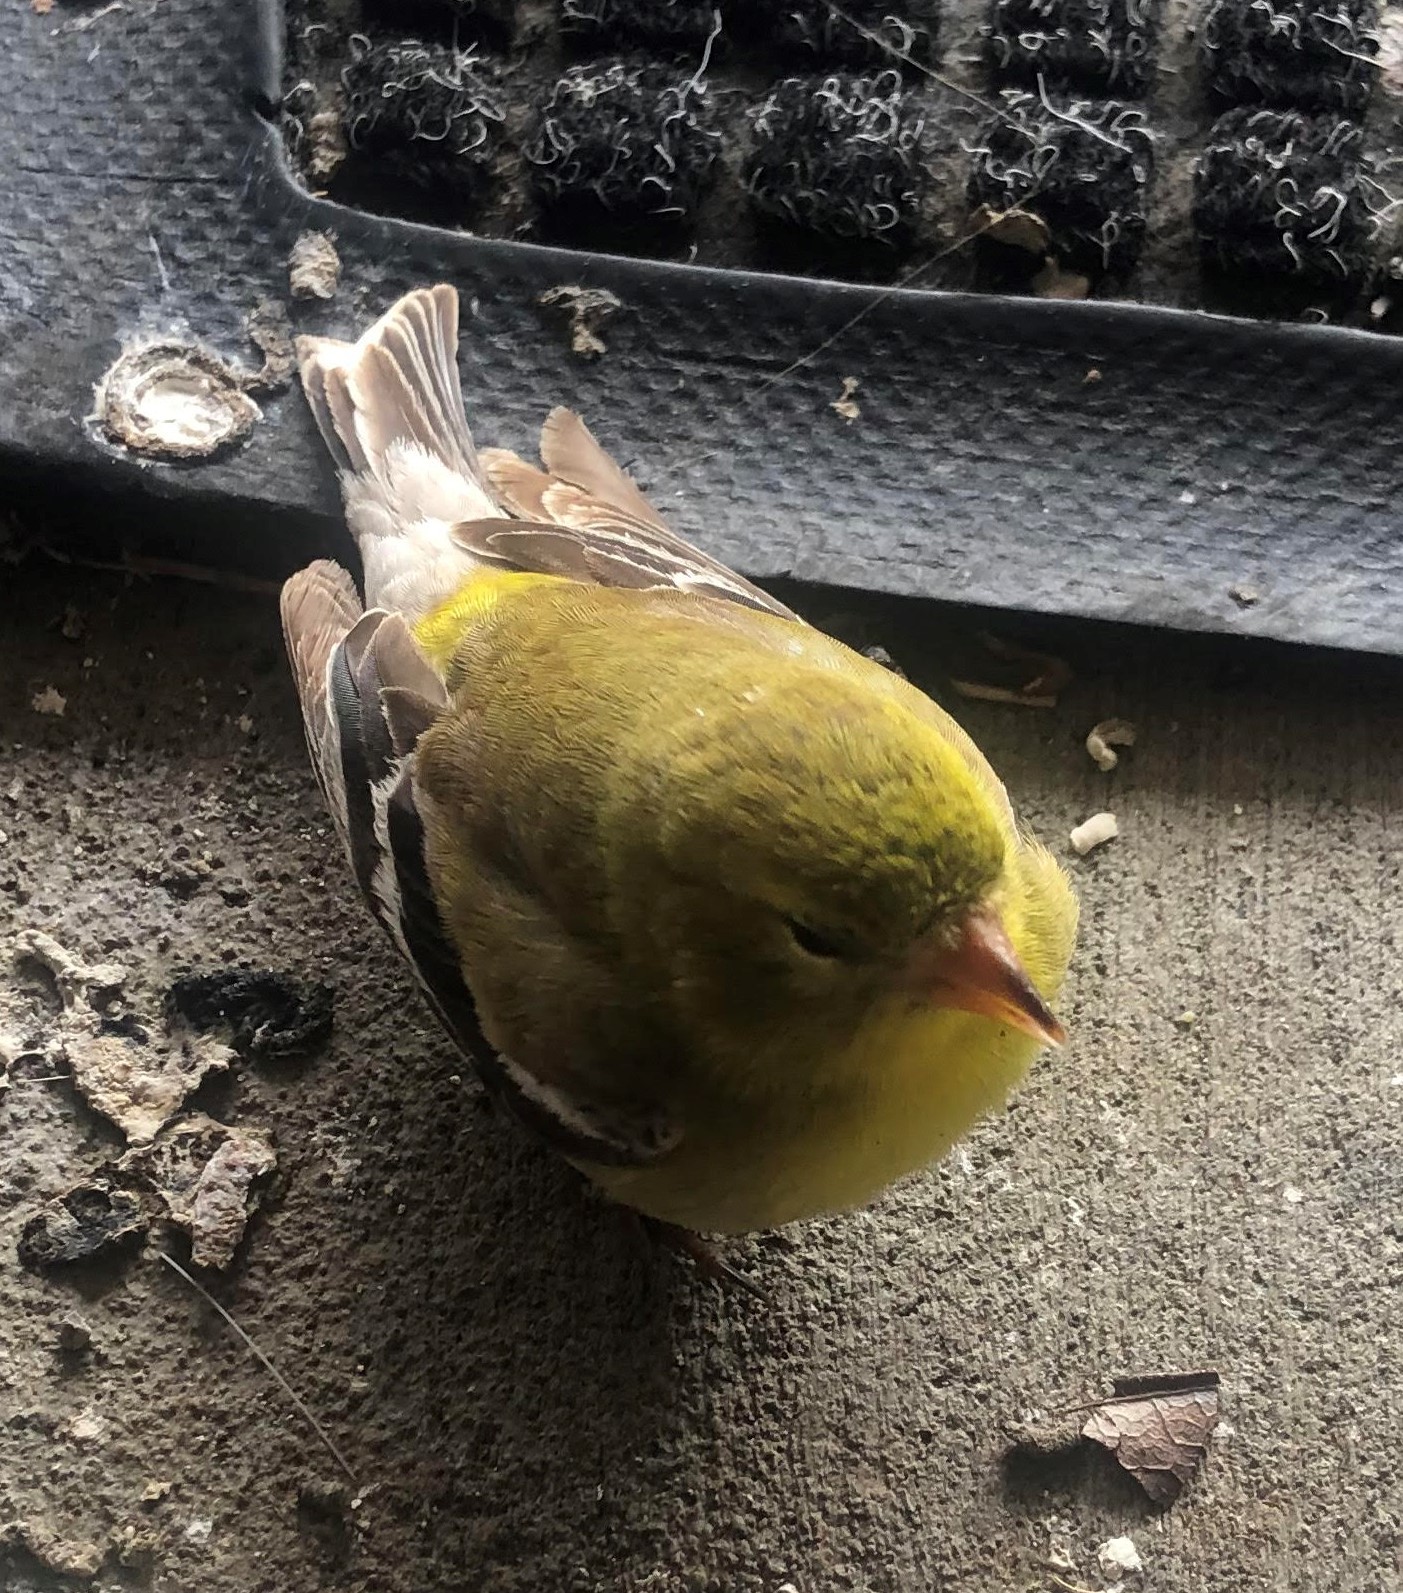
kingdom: Animalia
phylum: Chordata
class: Aves
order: Passeriformes
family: Fringillidae
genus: Spinus
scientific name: Spinus tristis
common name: American goldfinch
